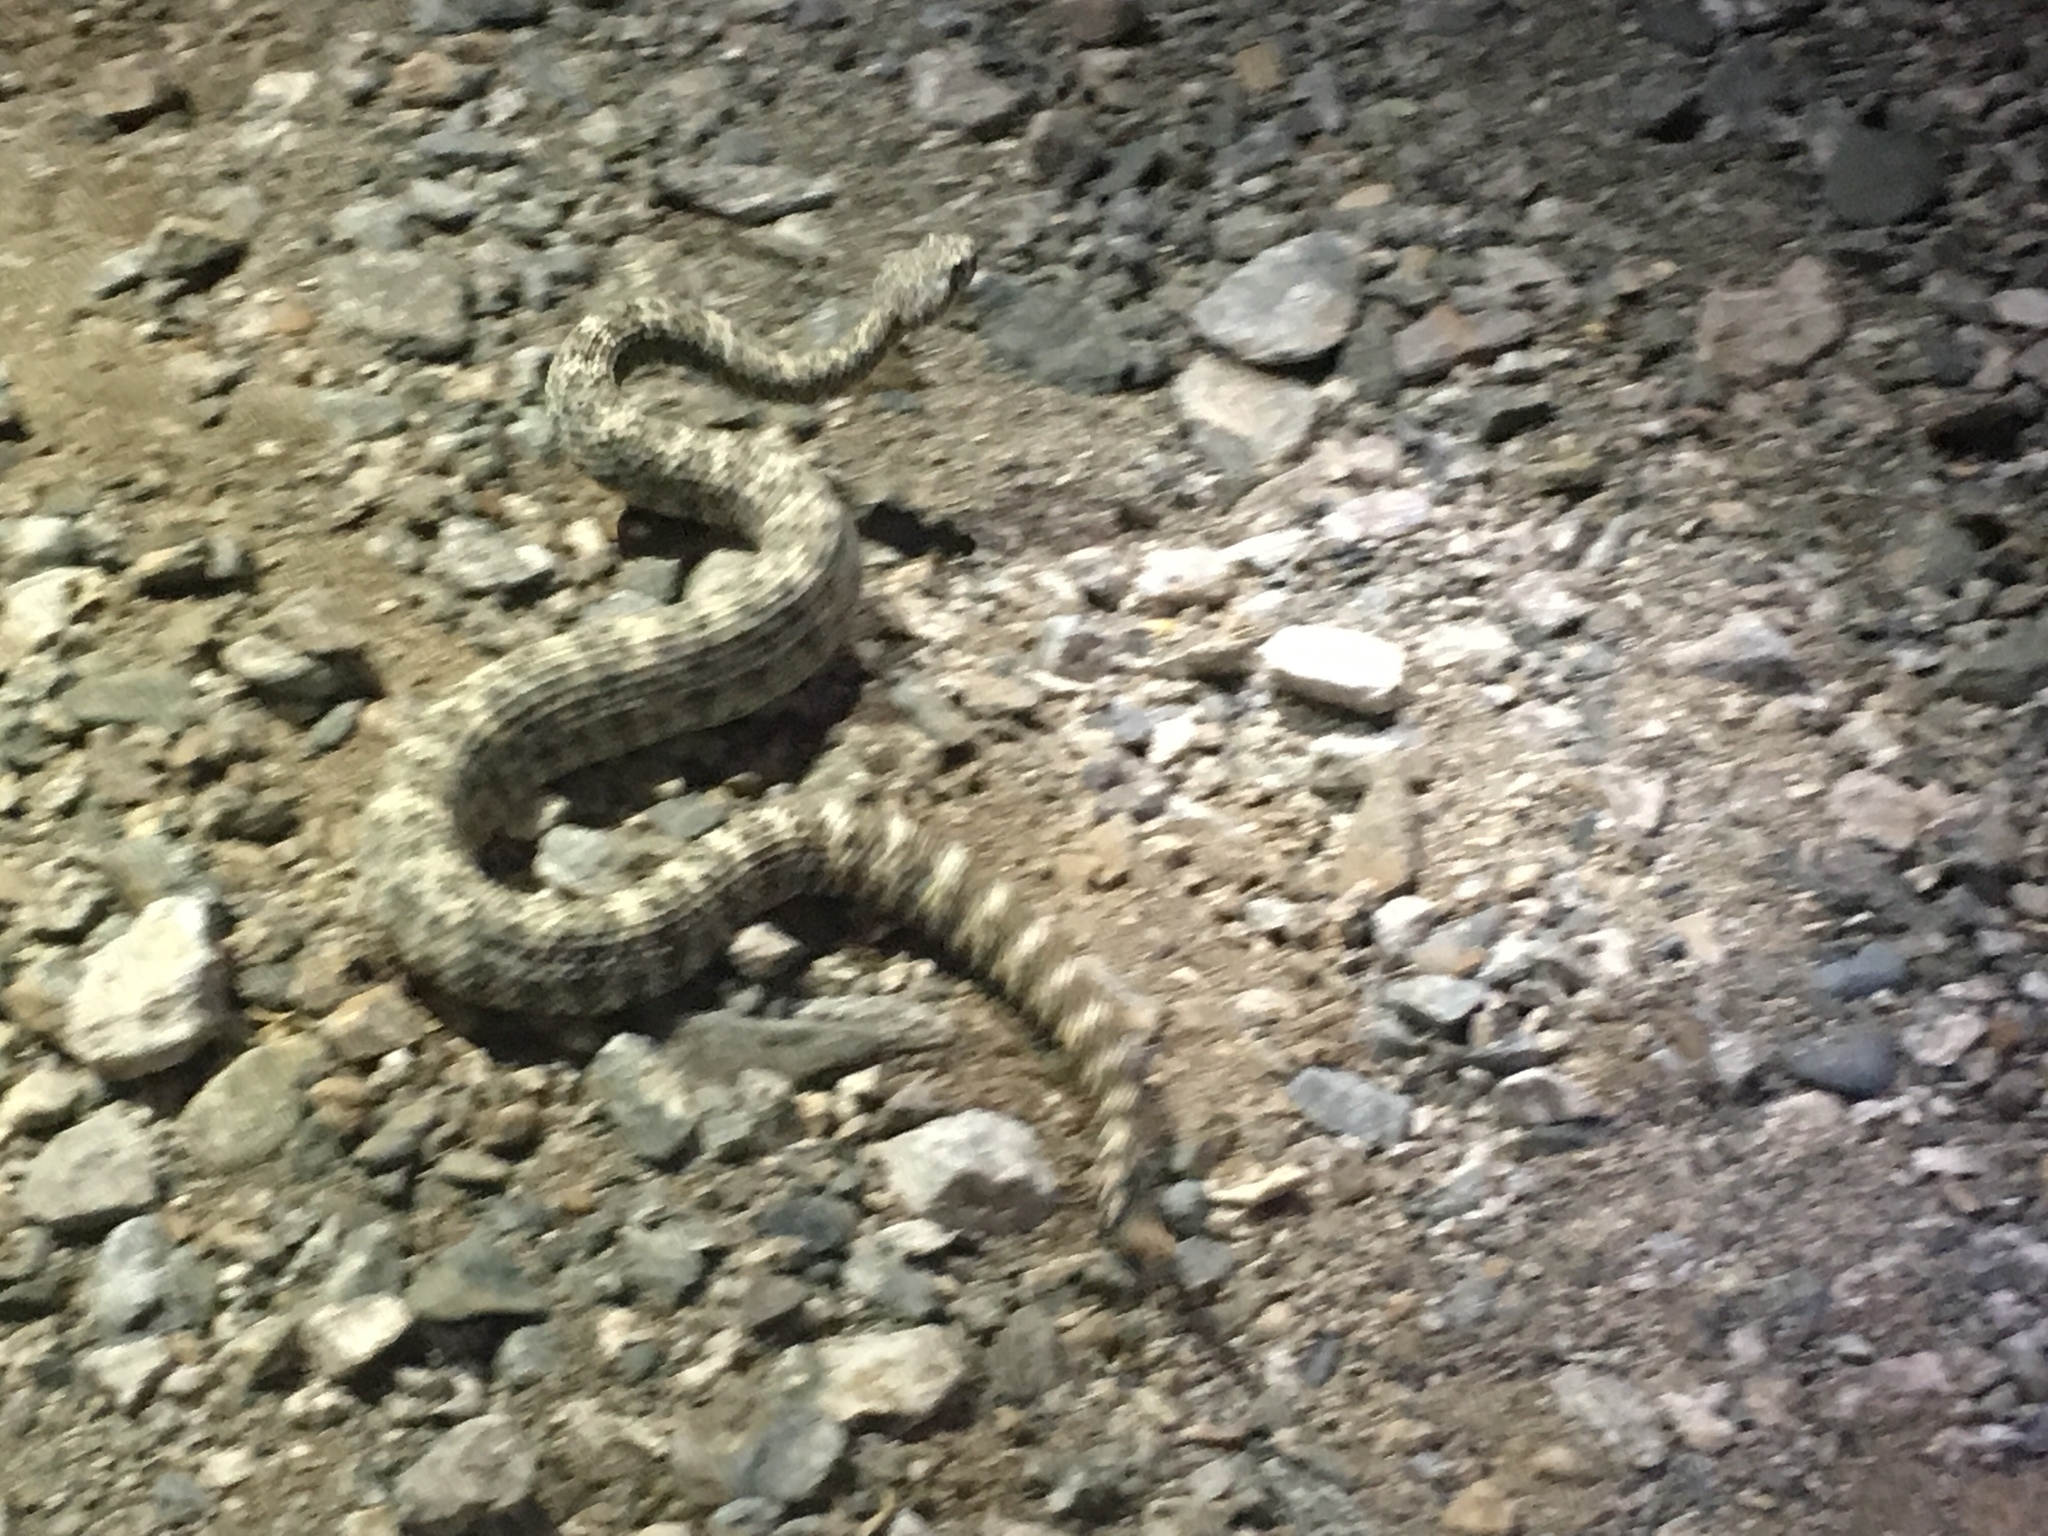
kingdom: Animalia
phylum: Chordata
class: Squamata
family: Viperidae
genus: Crotalus
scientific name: Crotalus pyrrhus
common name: Southwestern speckled rattlesnake
